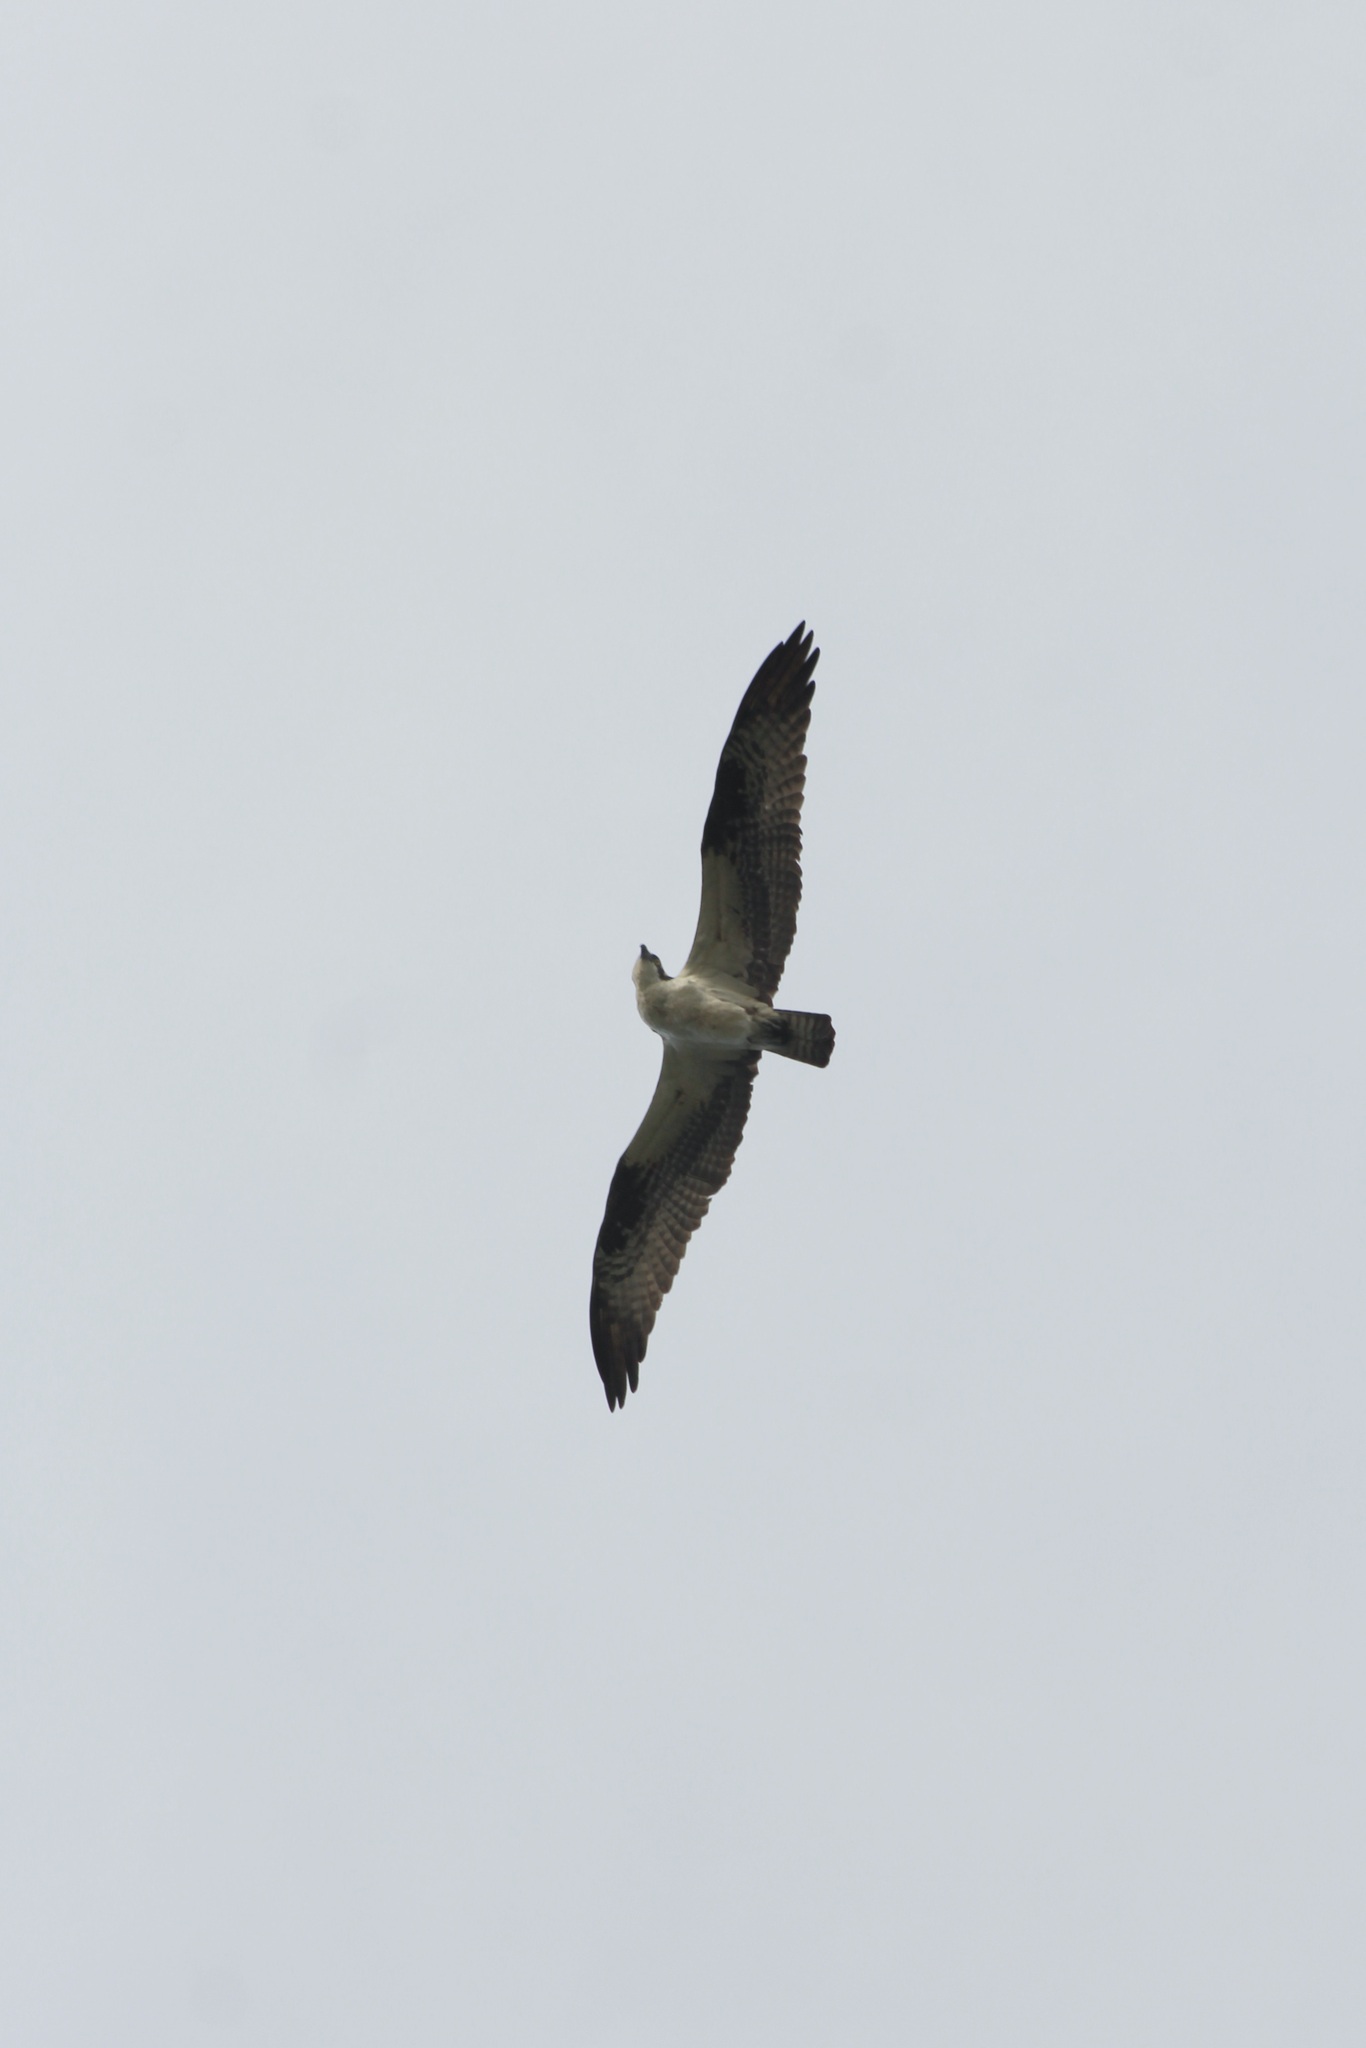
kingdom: Animalia
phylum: Chordata
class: Aves
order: Accipitriformes
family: Pandionidae
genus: Pandion
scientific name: Pandion haliaetus
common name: Osprey
